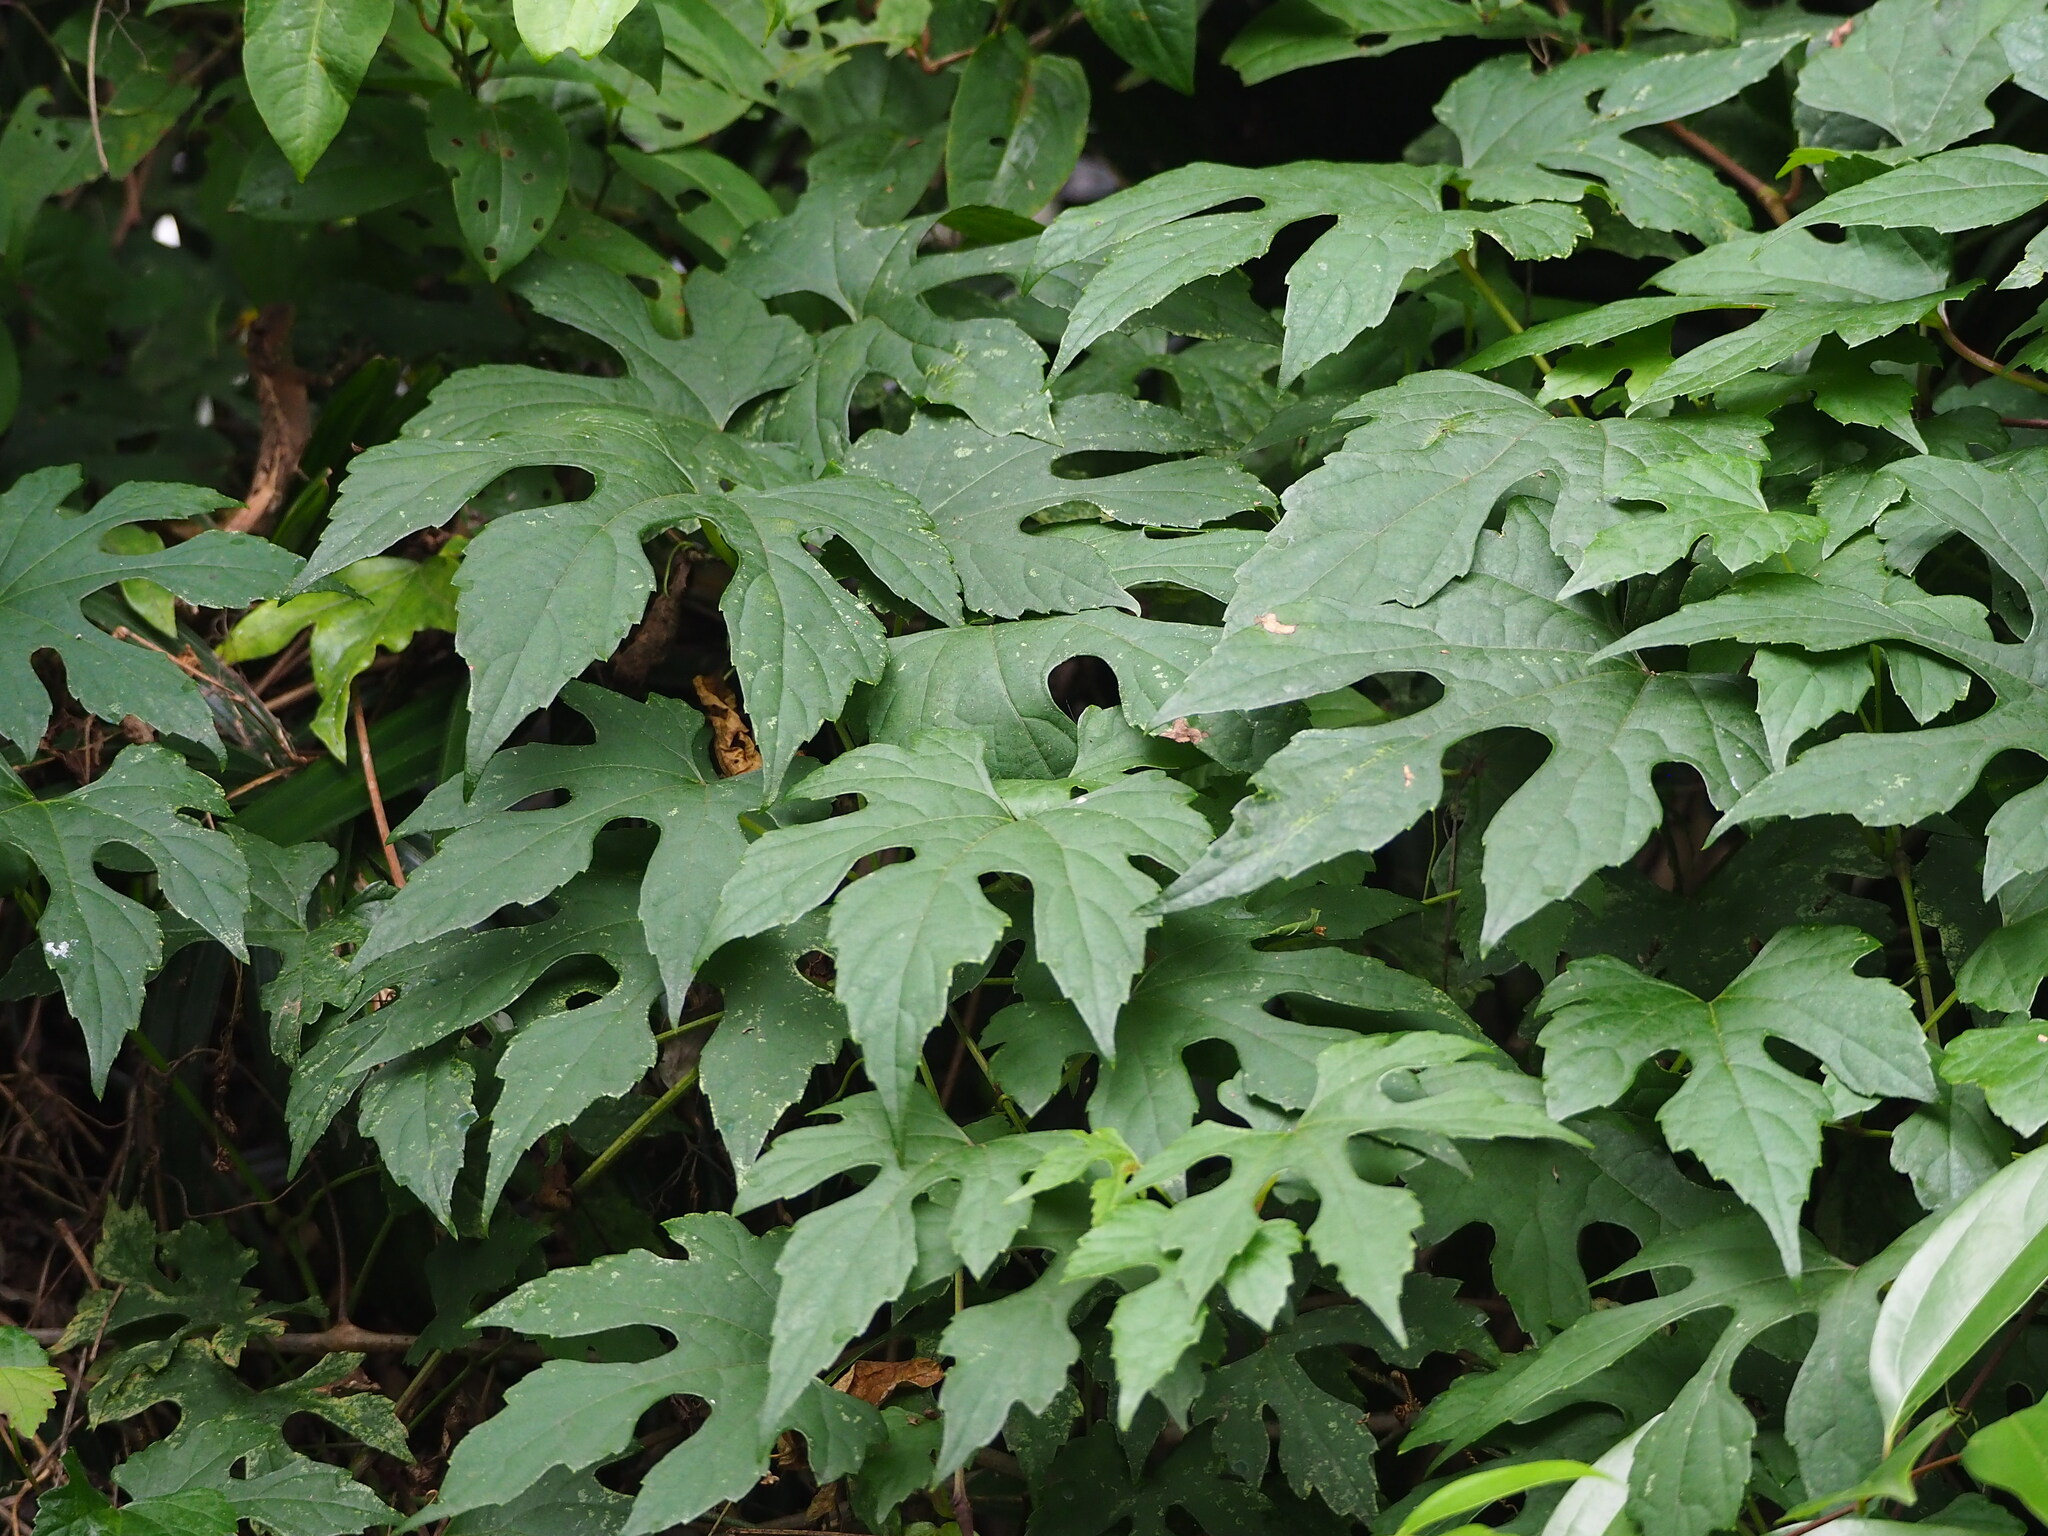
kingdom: Plantae
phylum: Tracheophyta
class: Magnoliopsida
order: Cucurbitales
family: Cucurbitaceae
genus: Diplocyclos
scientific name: Diplocyclos palmatus
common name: Striped-cucumber
